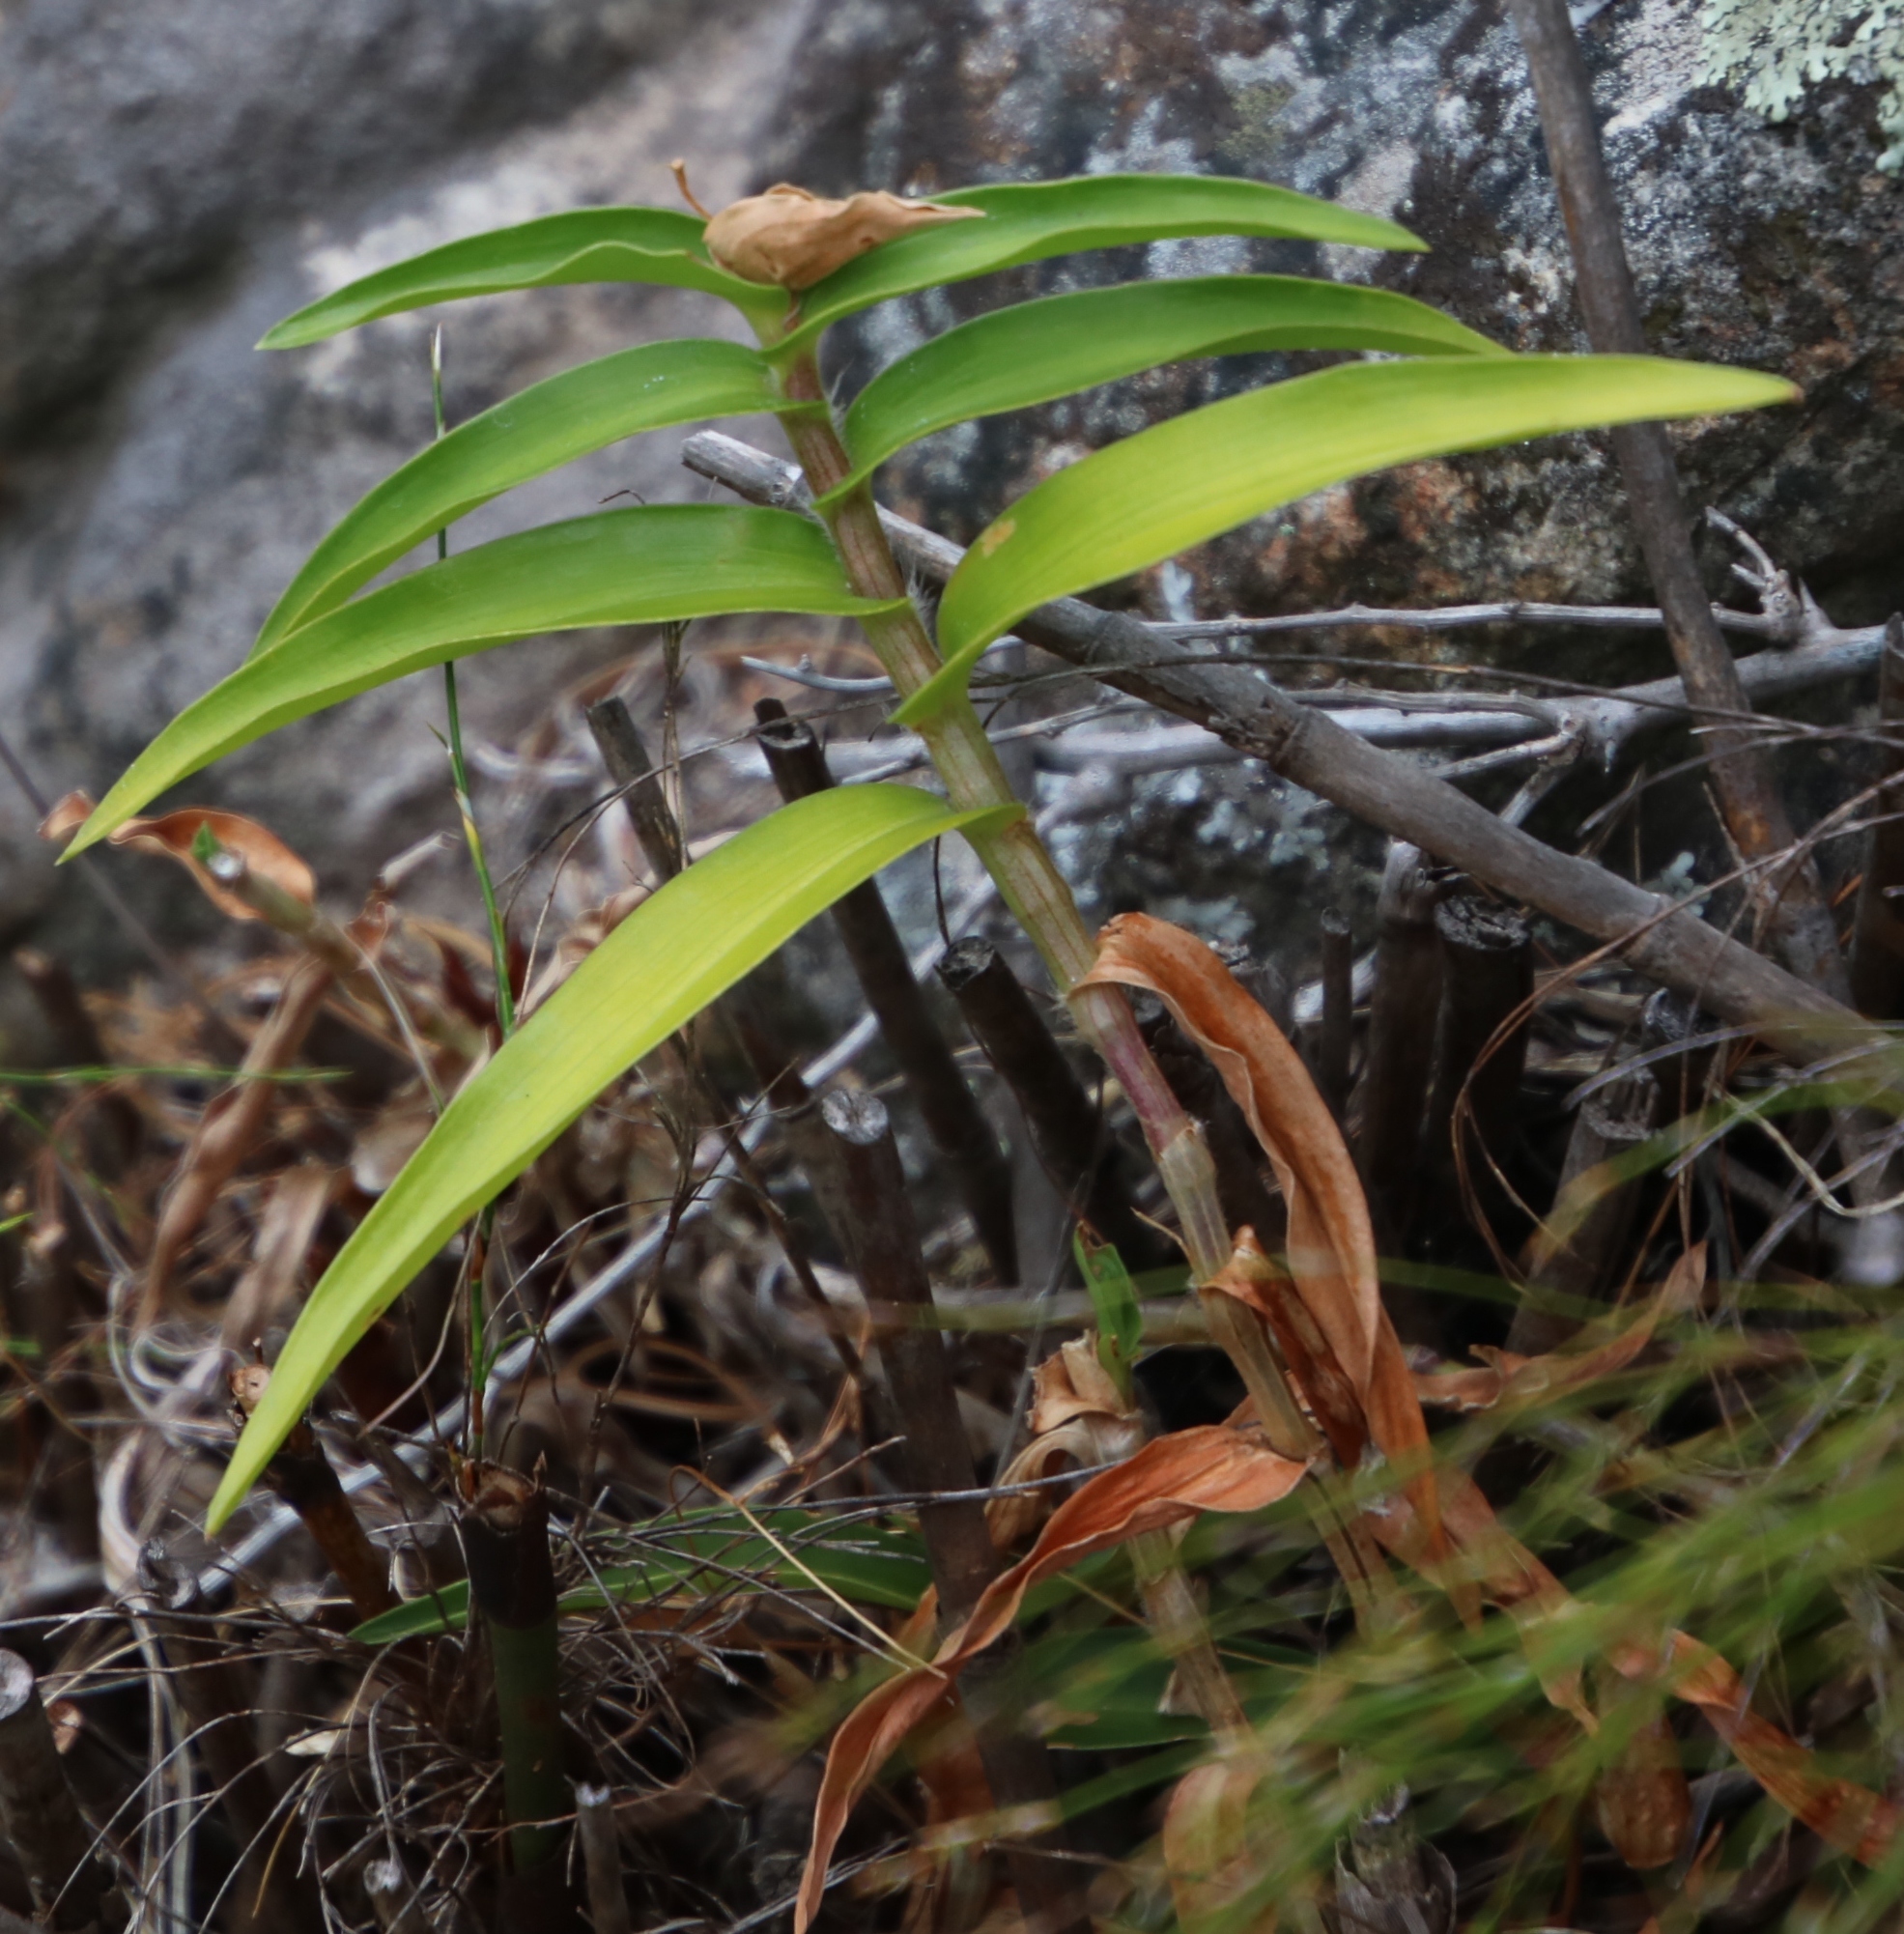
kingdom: Plantae
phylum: Tracheophyta
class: Liliopsida
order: Commelinales
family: Commelinaceae
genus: Commelina
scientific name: Commelina africana
